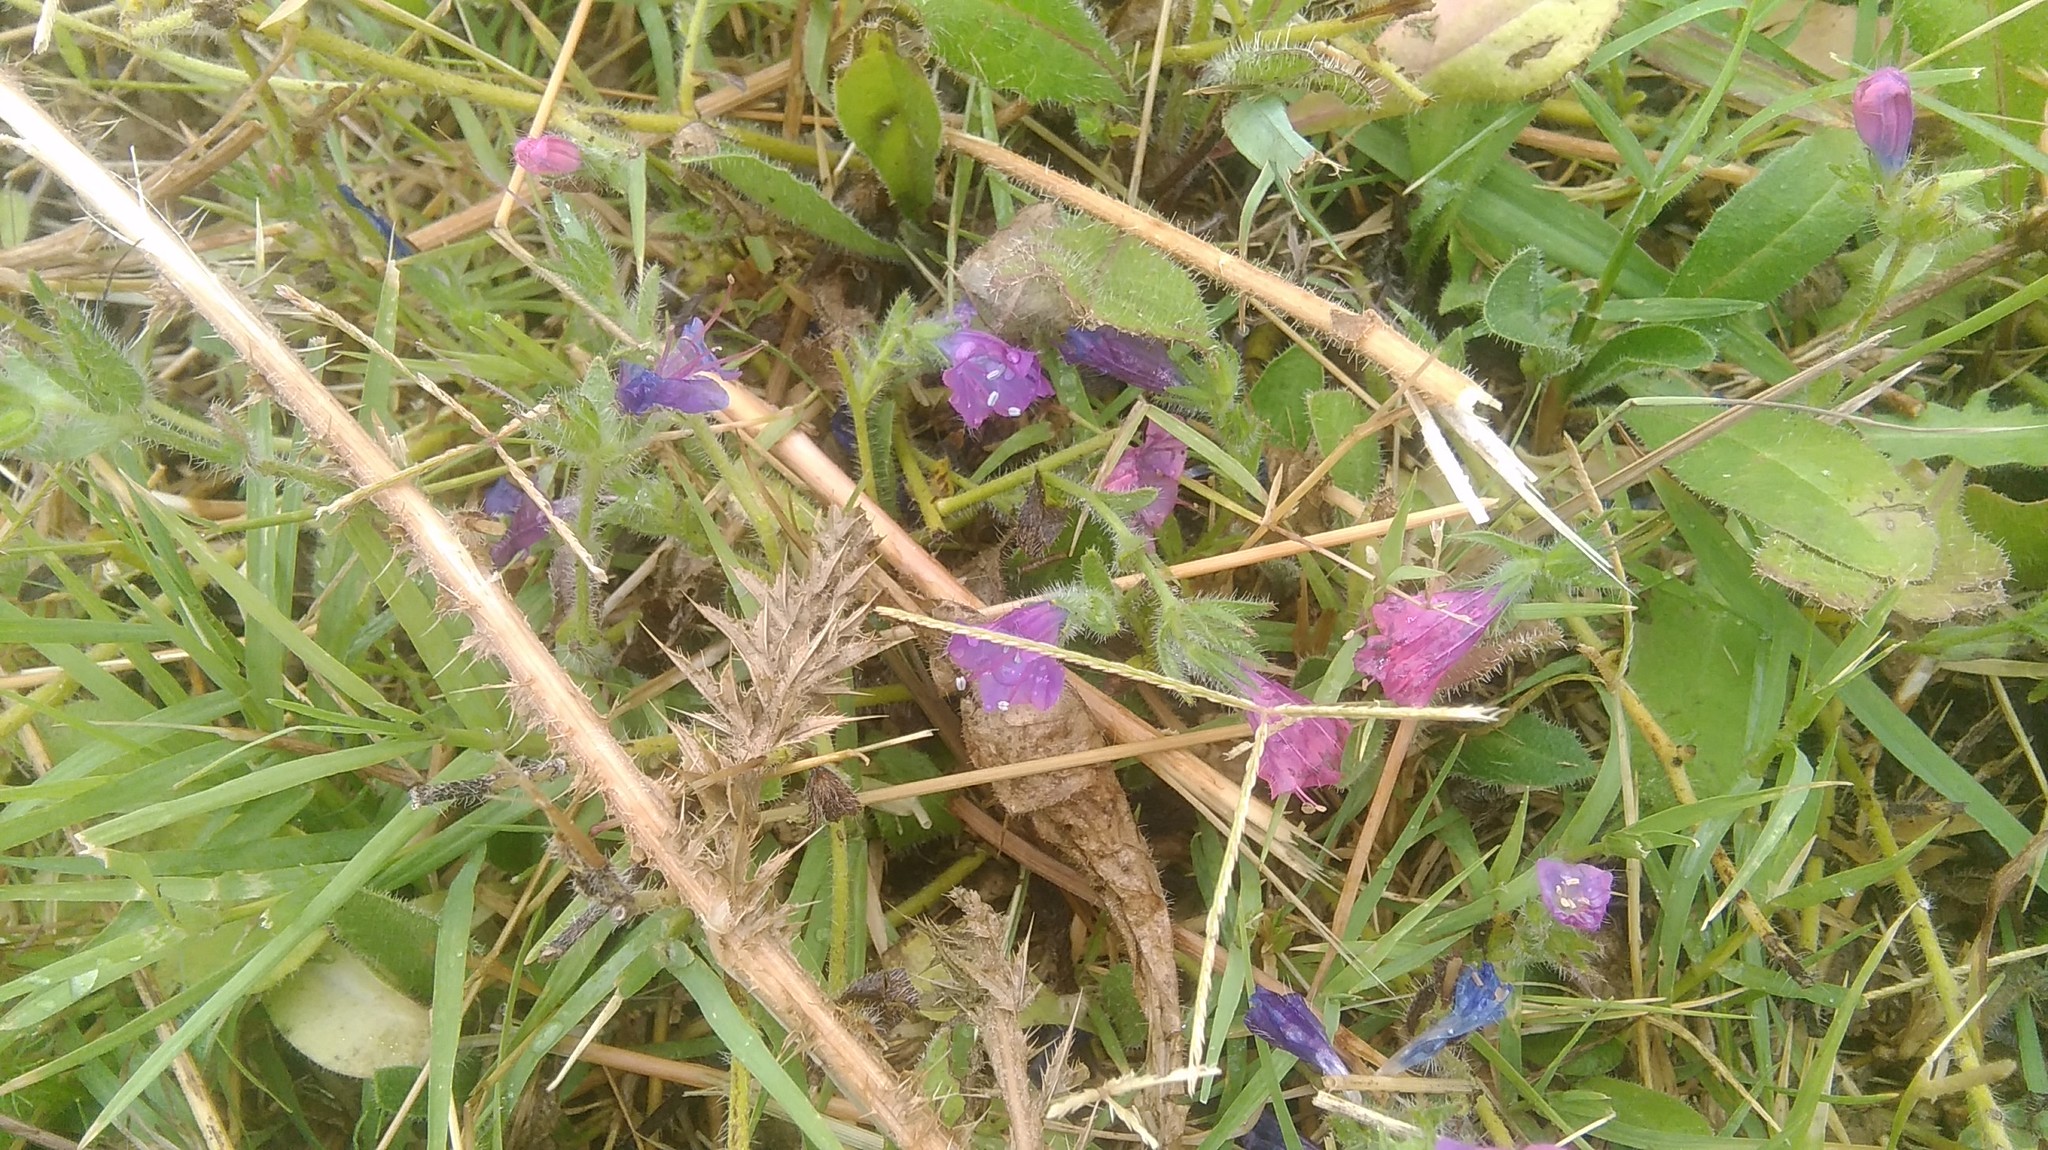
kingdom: Plantae
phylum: Tracheophyta
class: Magnoliopsida
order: Boraginales
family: Boraginaceae
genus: Echium
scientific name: Echium plantagineum
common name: Purple viper's-bugloss
